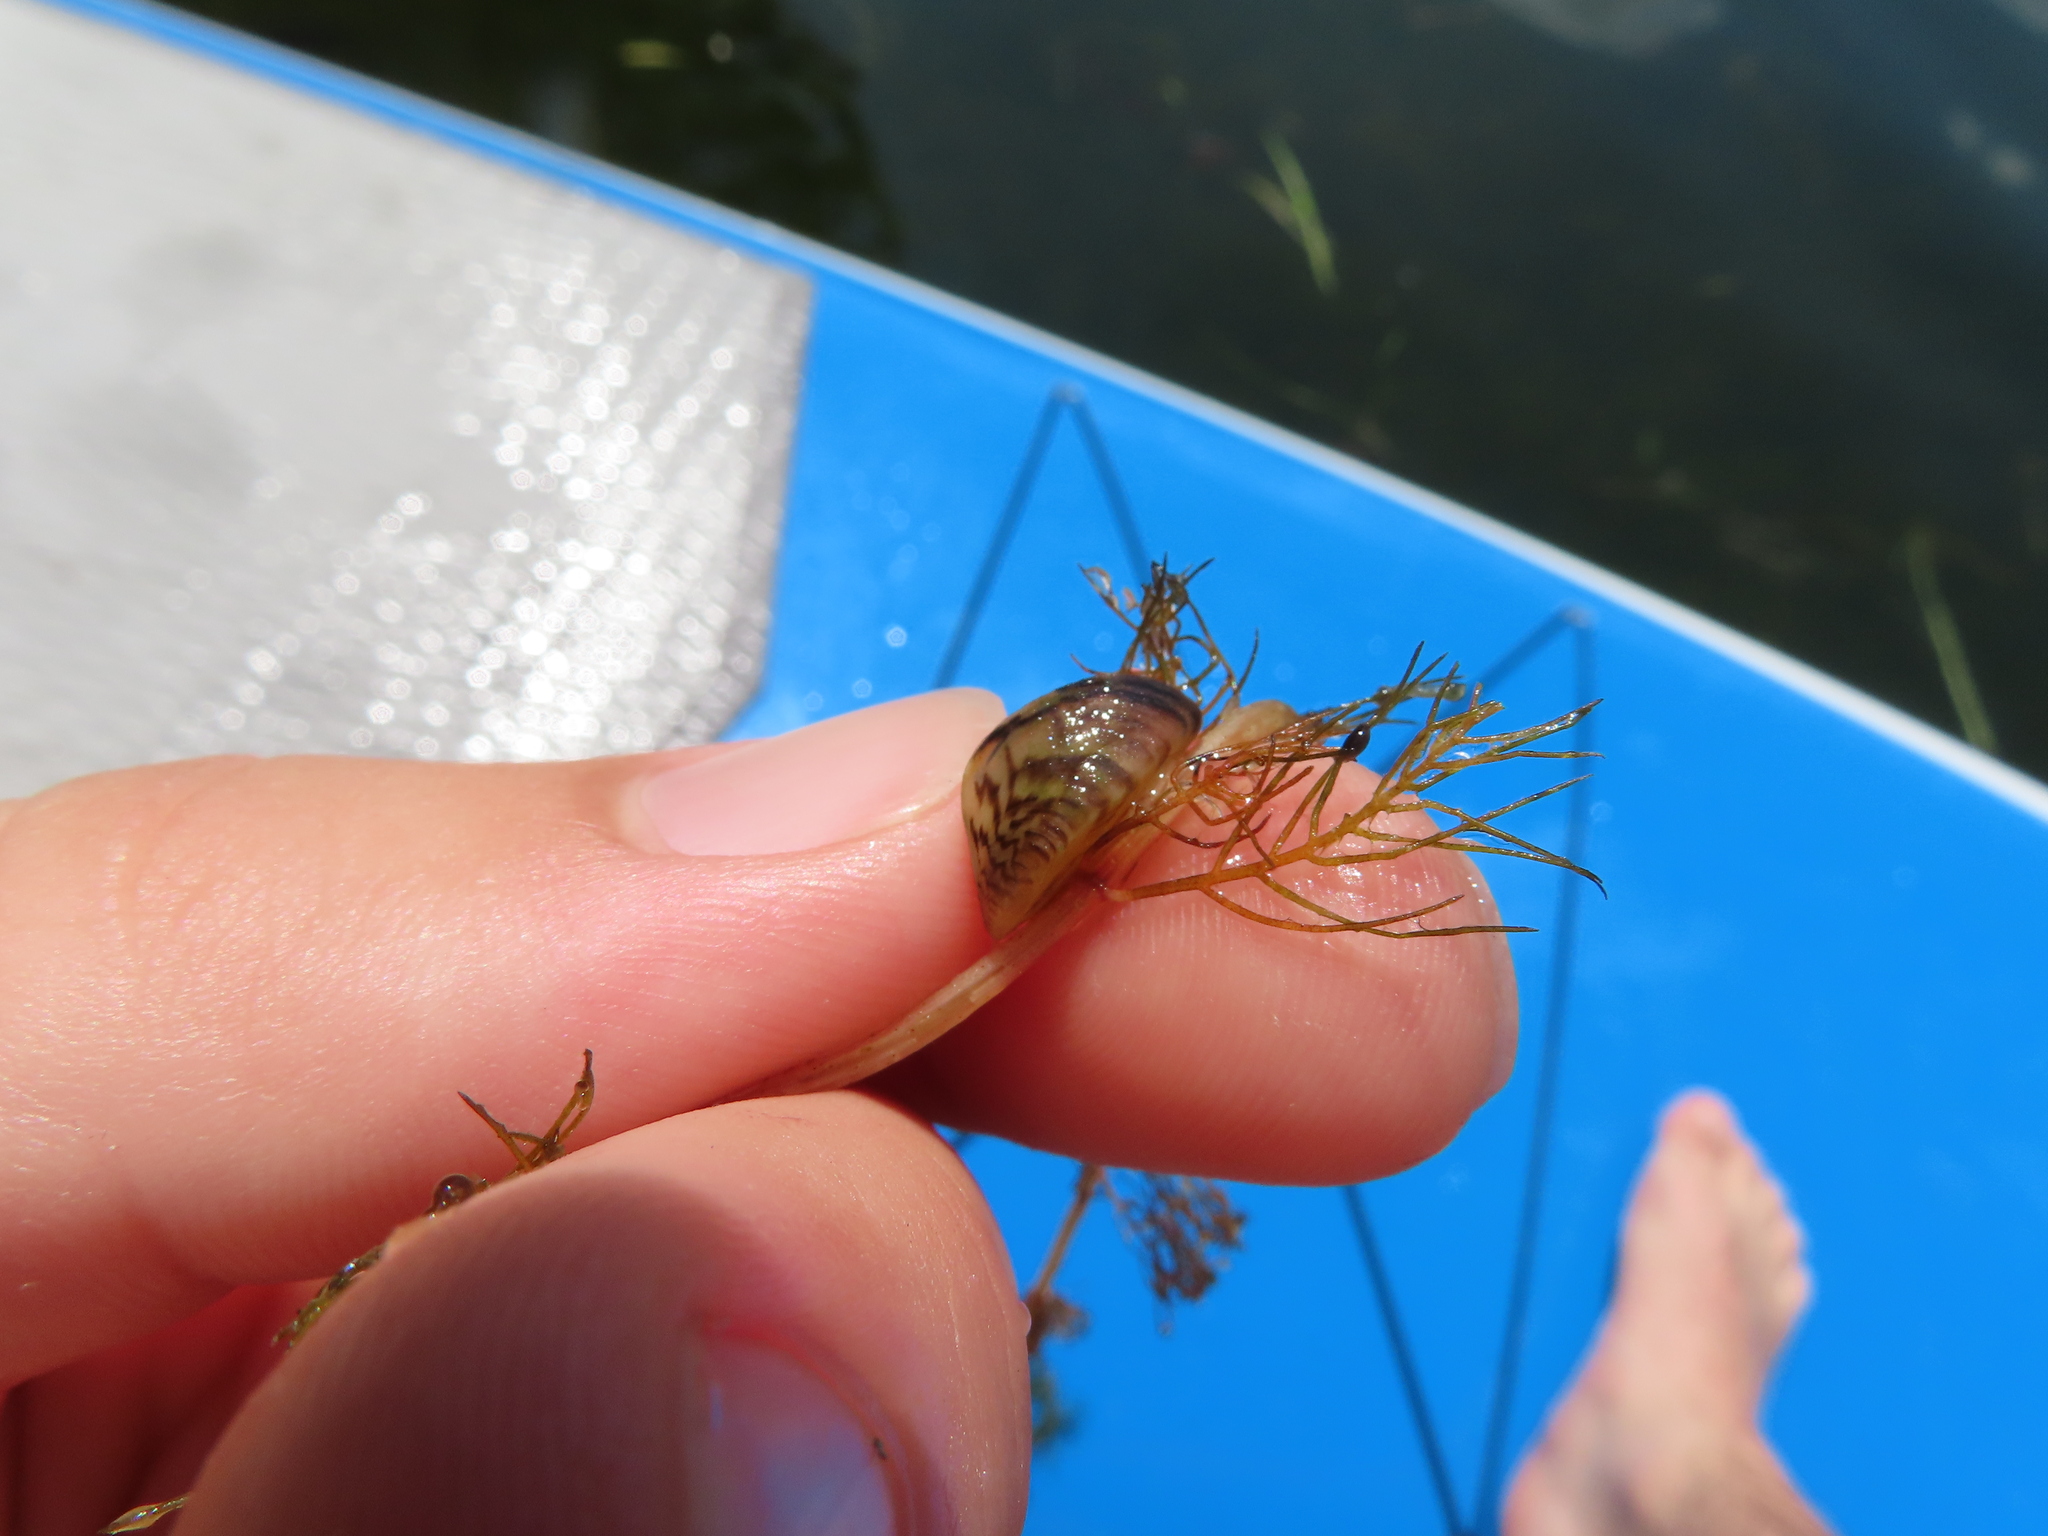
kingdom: Animalia
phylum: Mollusca
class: Bivalvia
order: Myida
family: Dreissenidae
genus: Dreissena
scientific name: Dreissena polymorpha
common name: Zebra mussel
